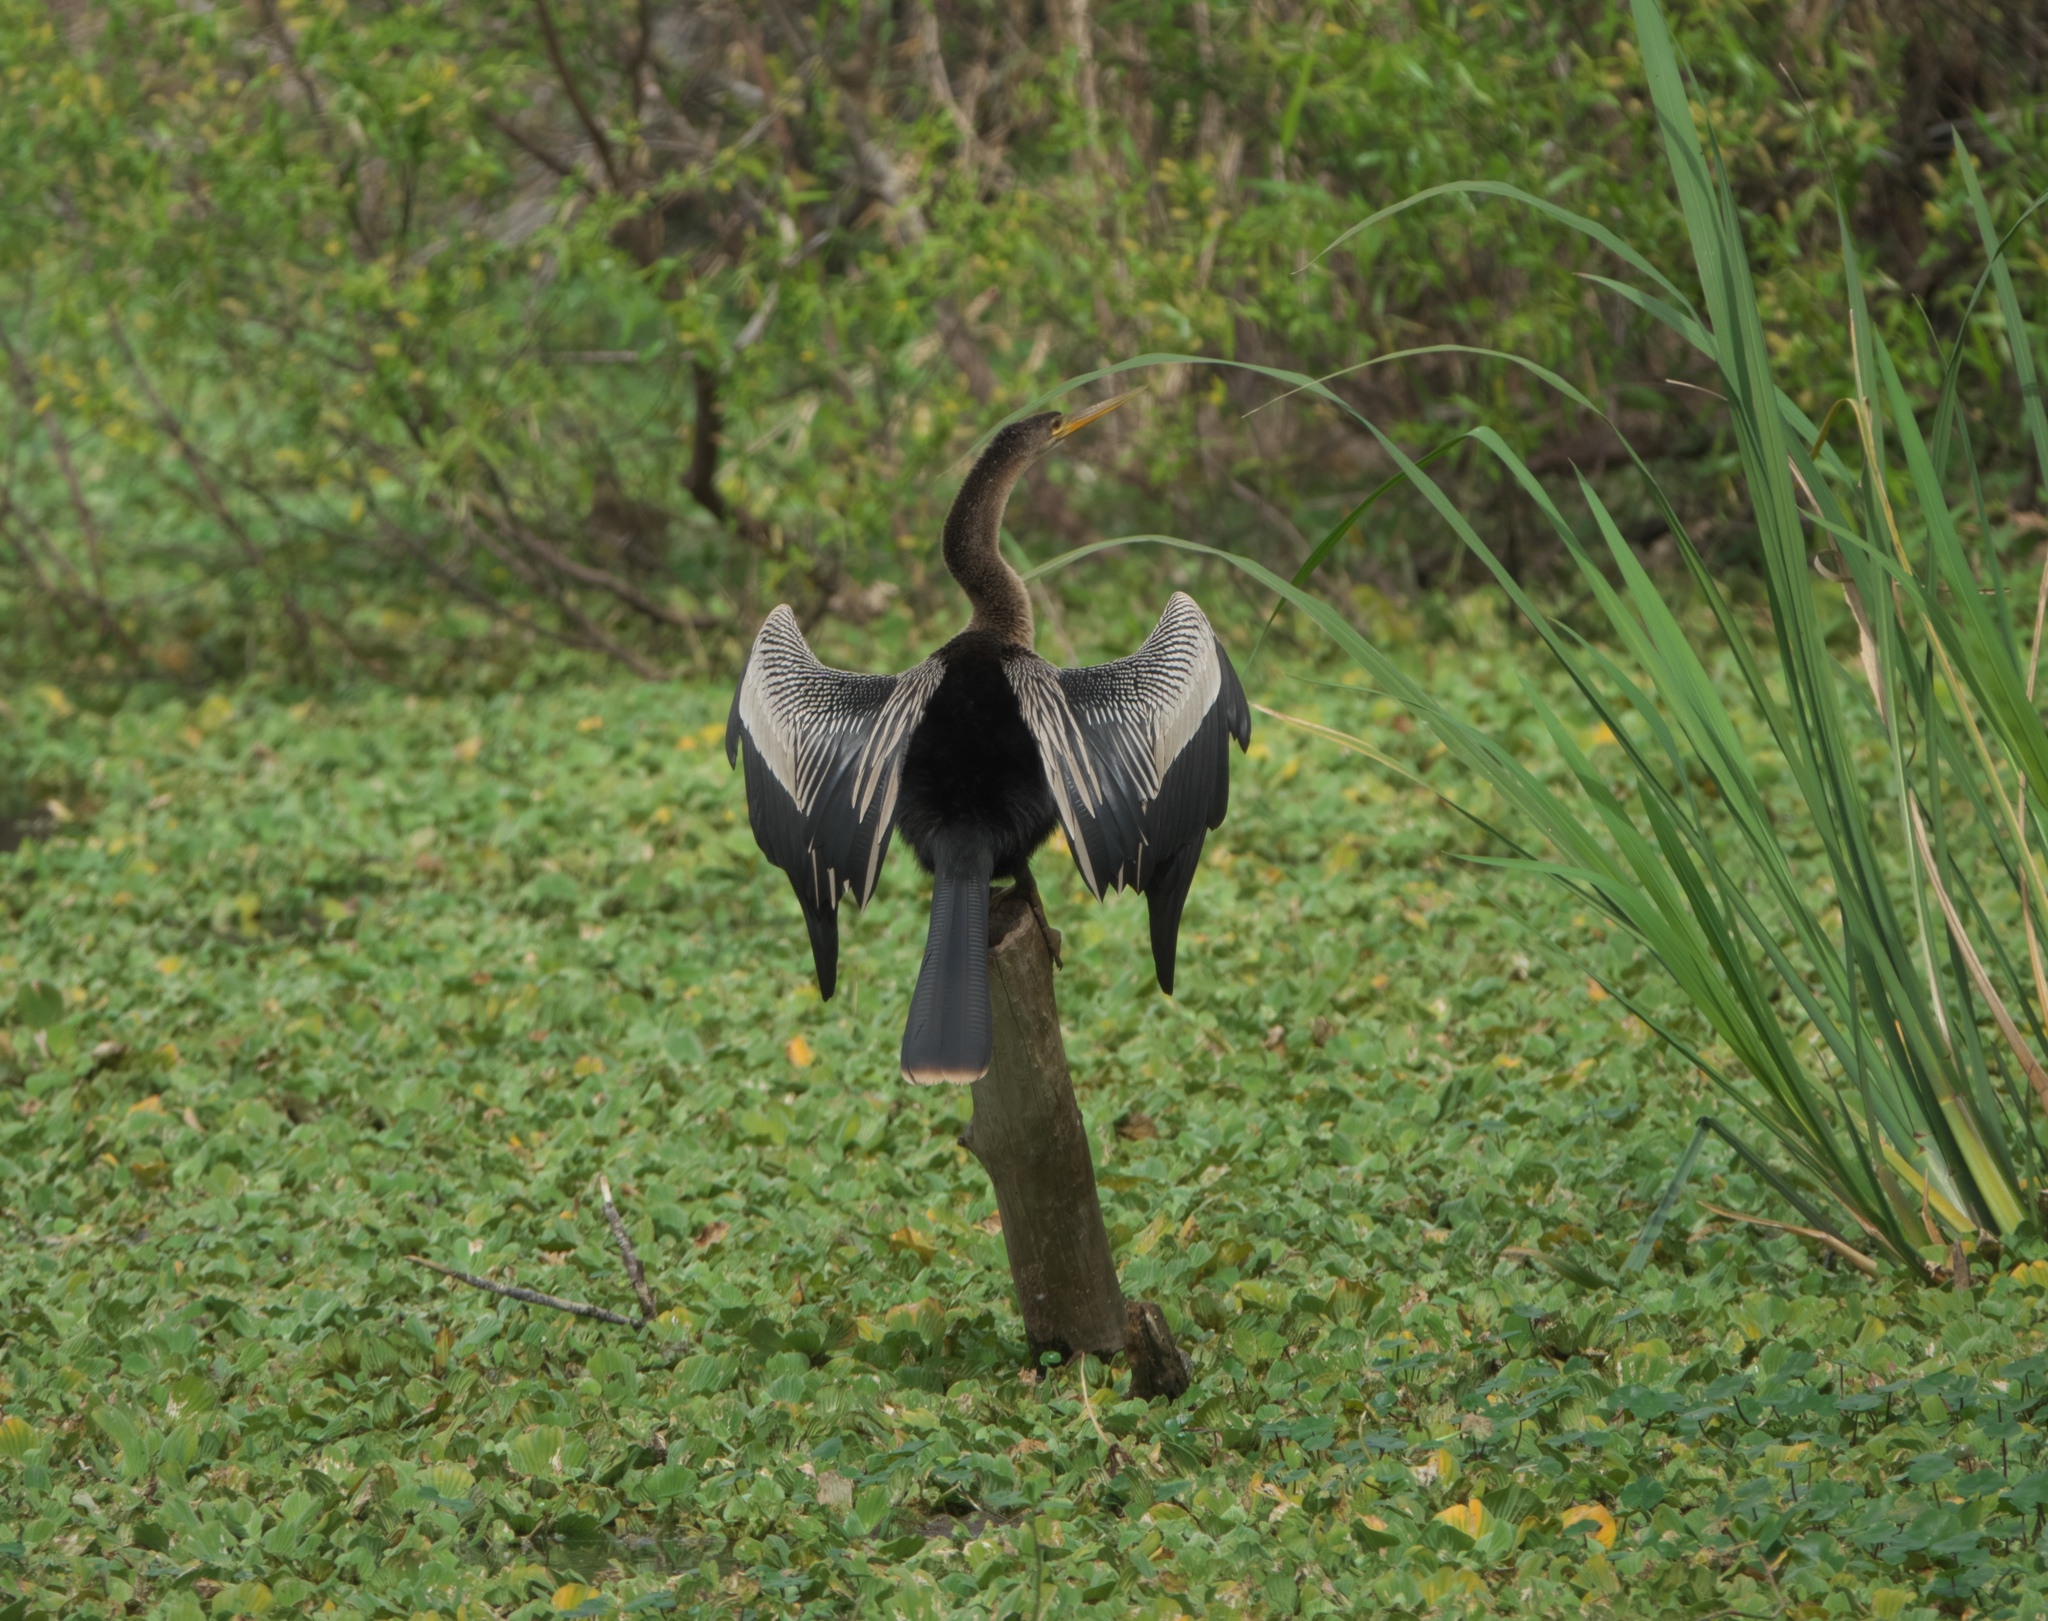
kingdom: Animalia
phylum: Chordata
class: Aves
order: Suliformes
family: Anhingidae
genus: Anhinga
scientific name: Anhinga anhinga
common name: Anhinga
